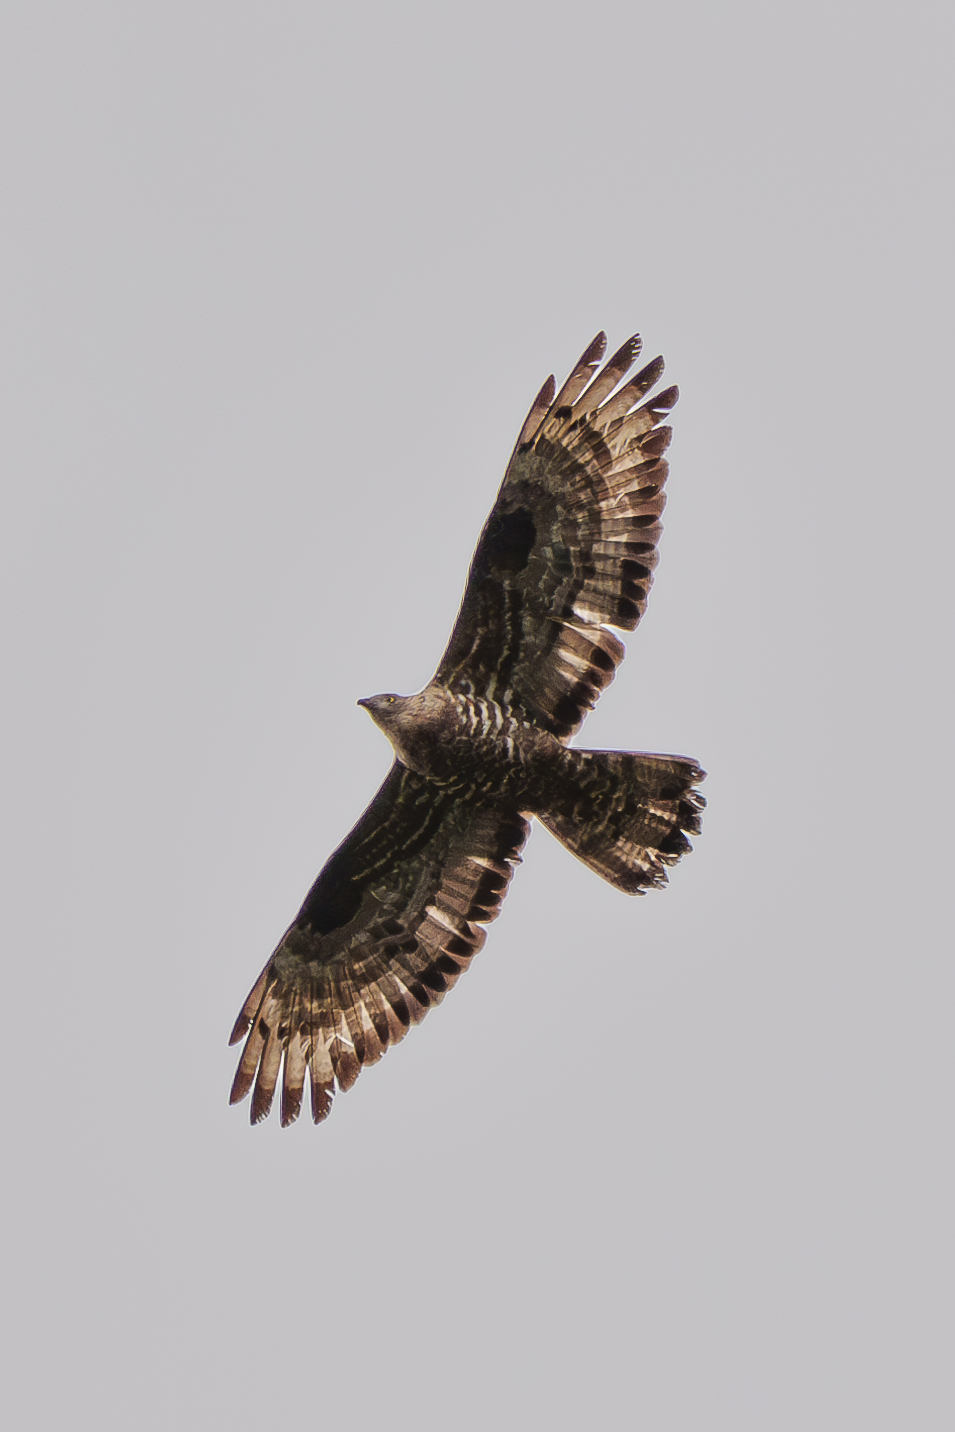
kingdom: Animalia
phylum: Chordata
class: Aves
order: Accipitriformes
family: Accipitridae
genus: Pernis
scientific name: Pernis apivorus
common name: European honey buzzard
